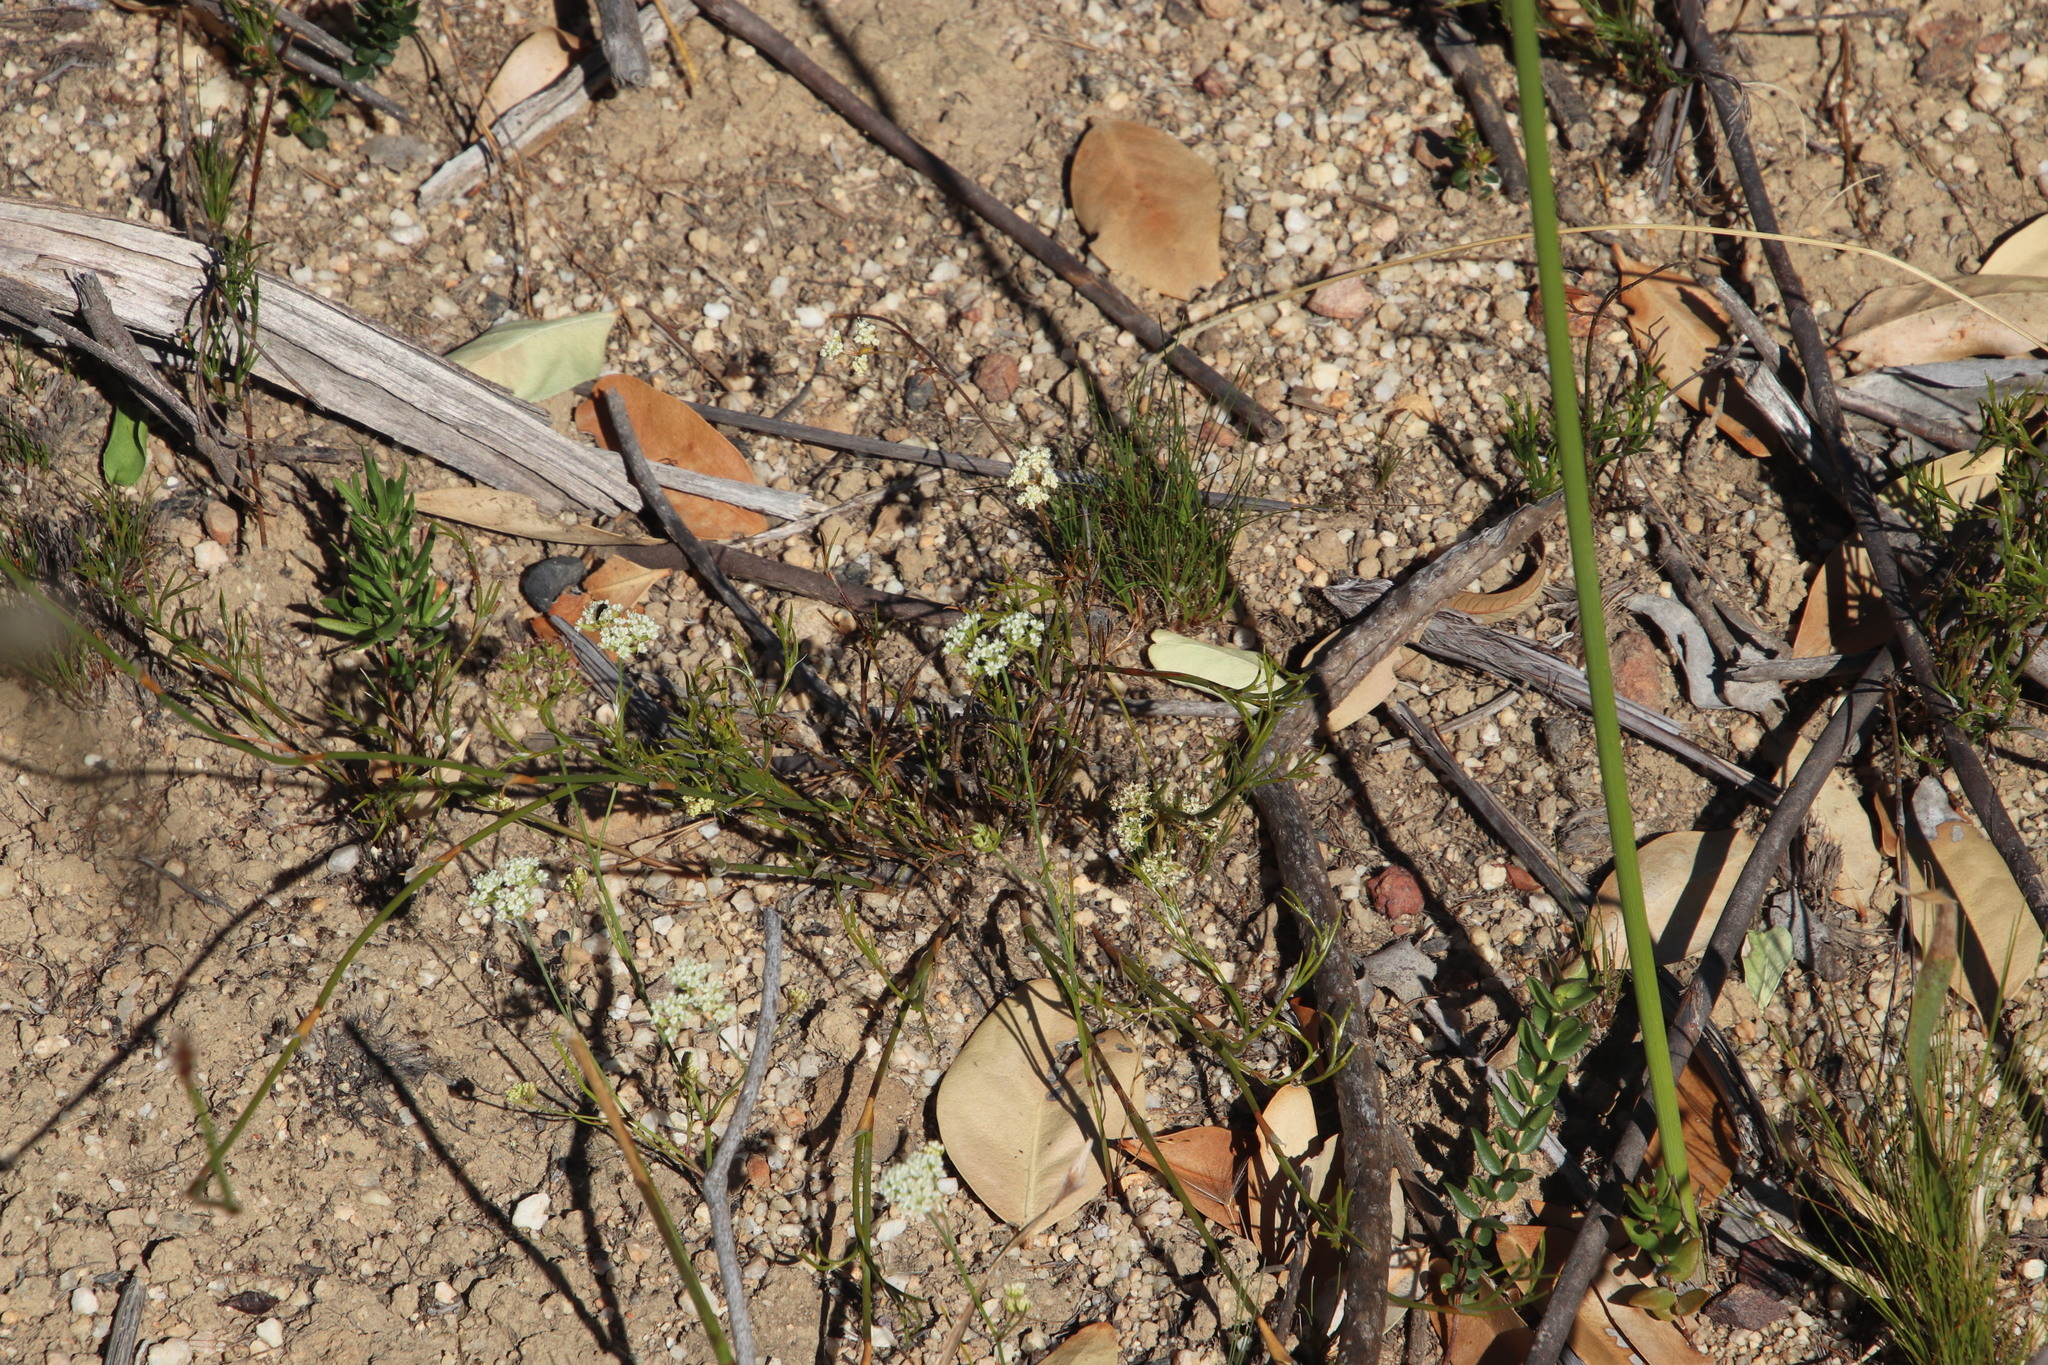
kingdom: Plantae
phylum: Tracheophyta
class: Magnoliopsida
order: Apiales
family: Apiaceae
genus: Itasina
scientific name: Itasina filifolia
